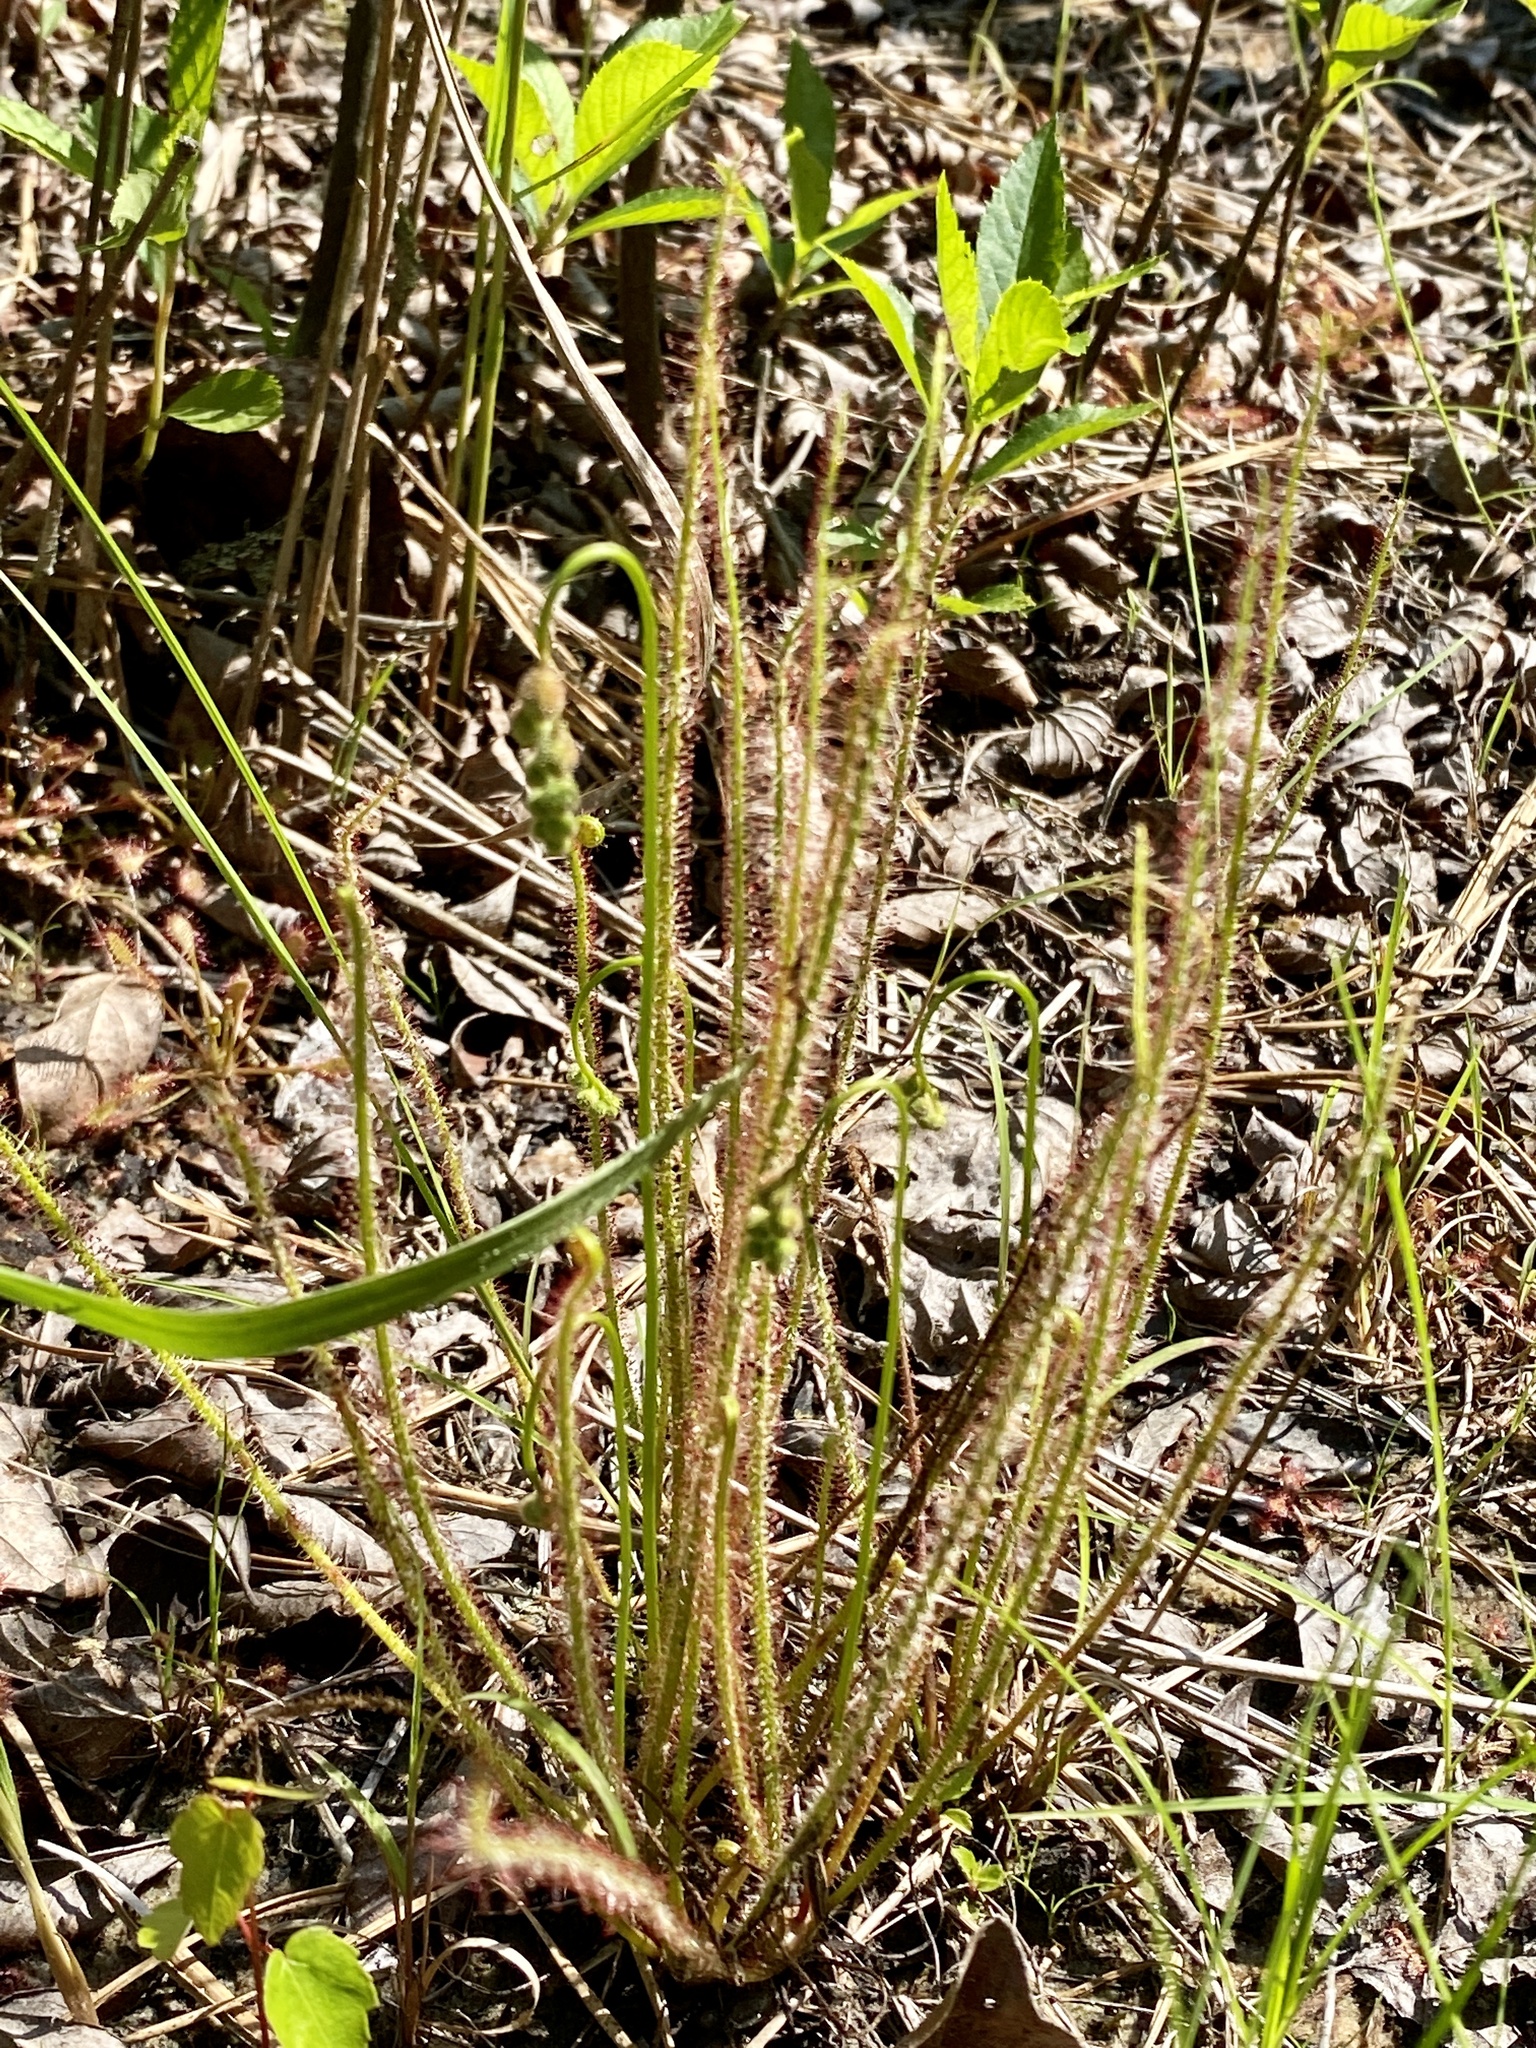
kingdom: Plantae
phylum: Tracheophyta
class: Magnoliopsida
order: Caryophyllales
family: Droseraceae
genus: Drosera
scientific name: Drosera filiformis
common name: Dew-thread
